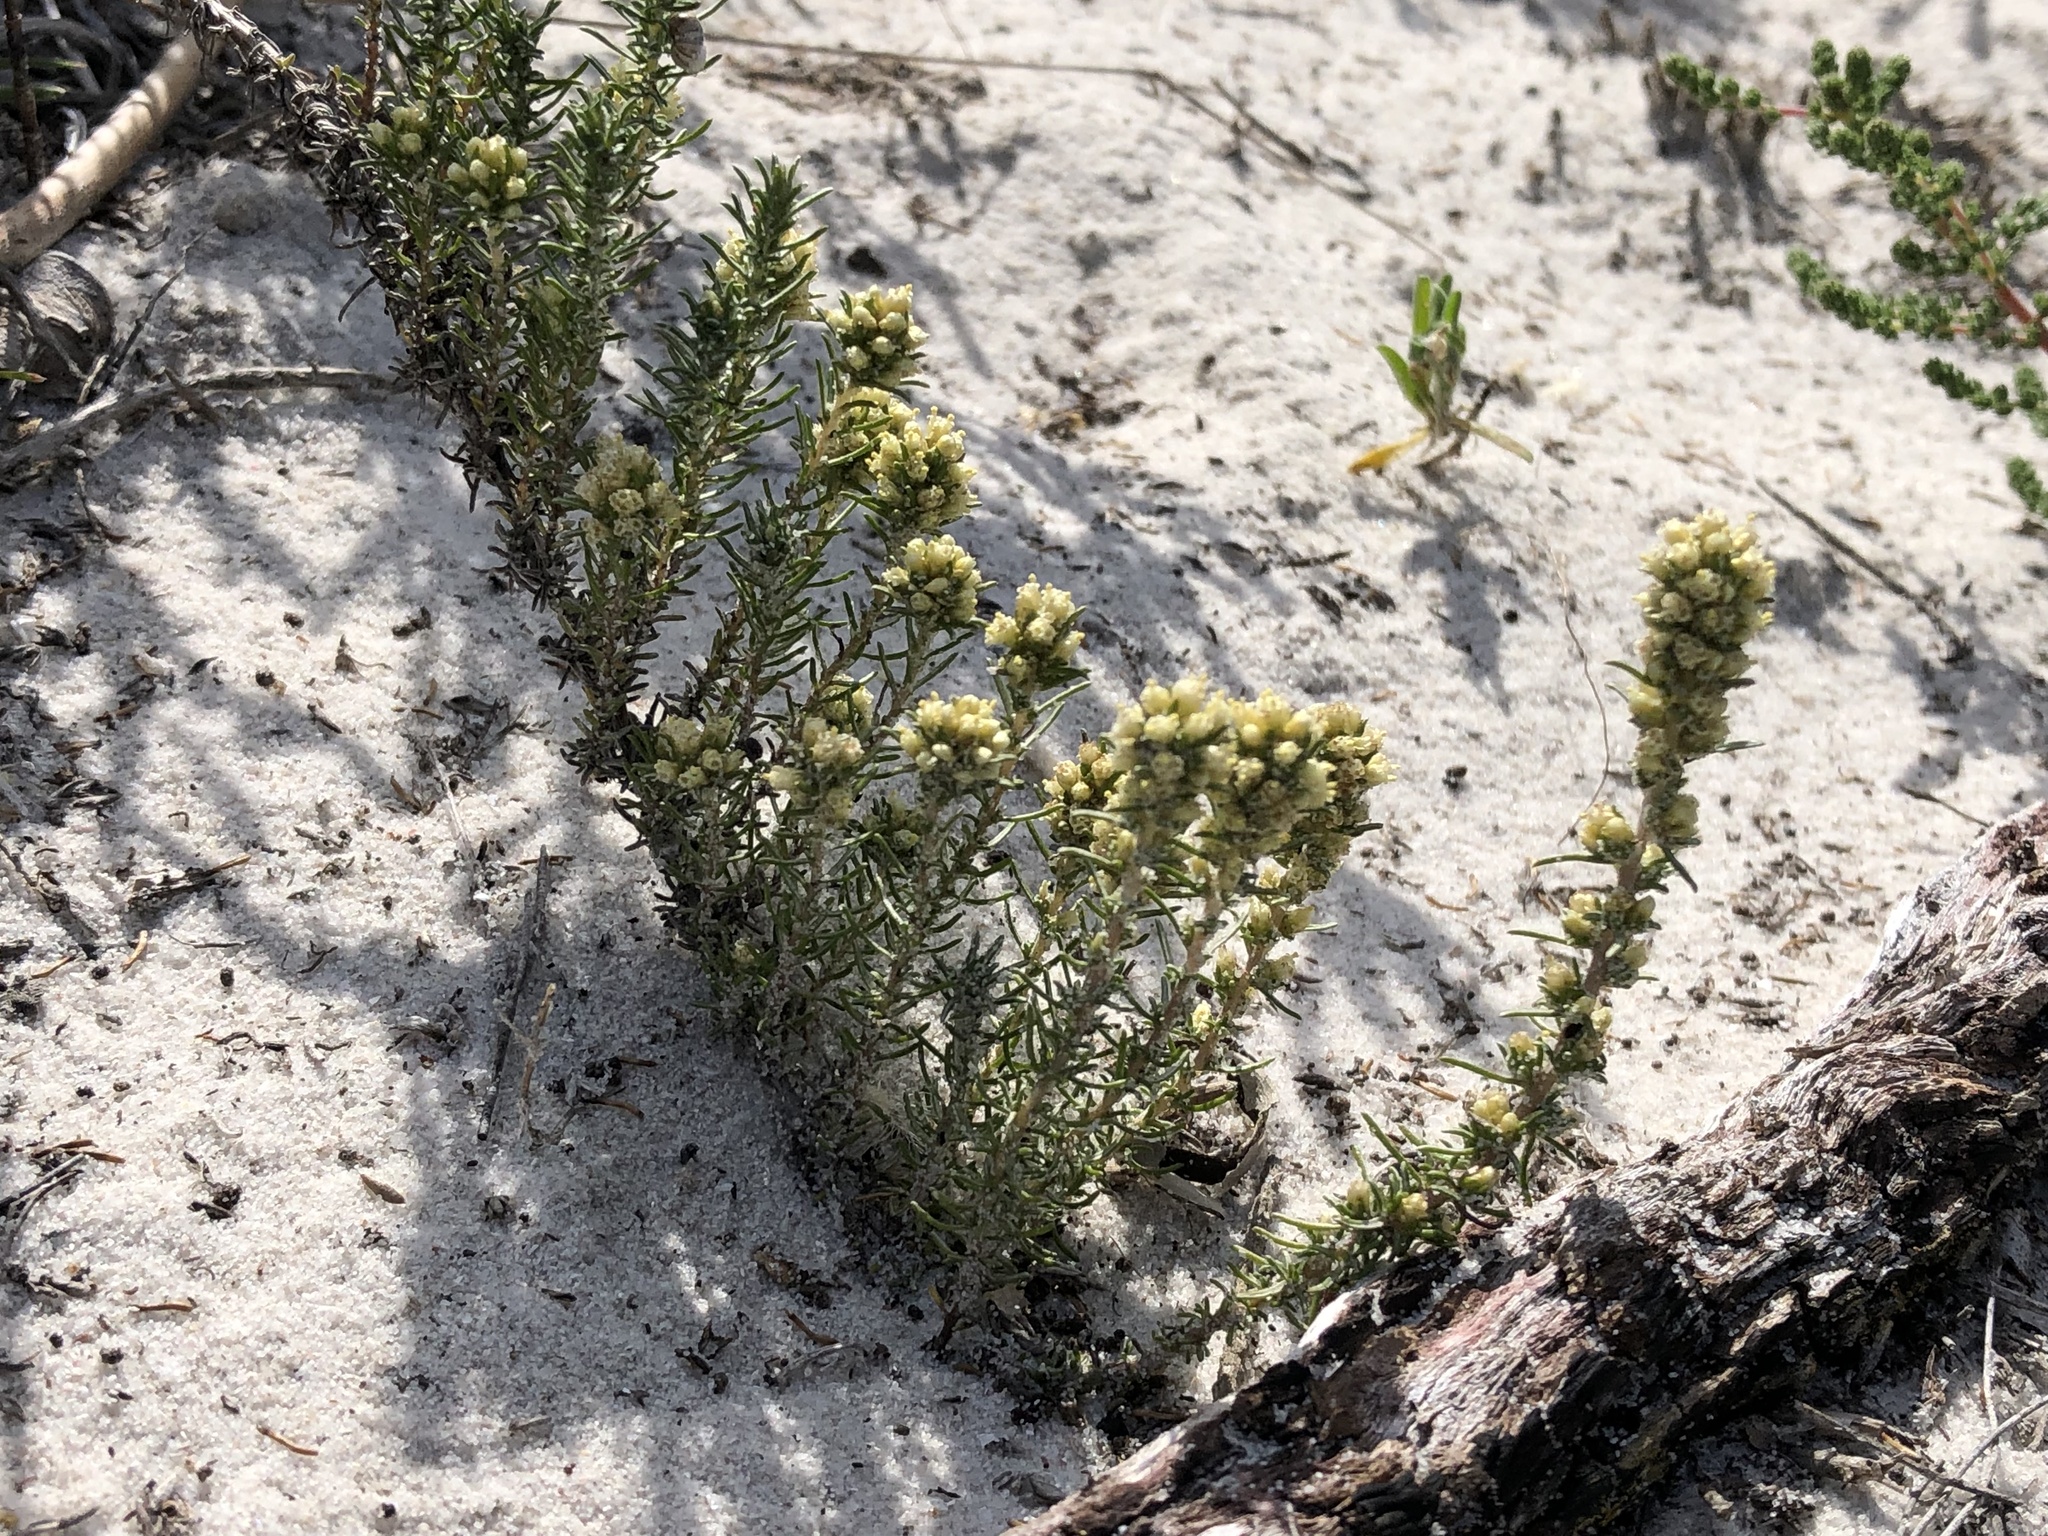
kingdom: Plantae
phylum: Tracheophyta
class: Magnoliopsida
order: Asterales
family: Asteraceae
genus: Ifloga
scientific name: Ifloga repens
